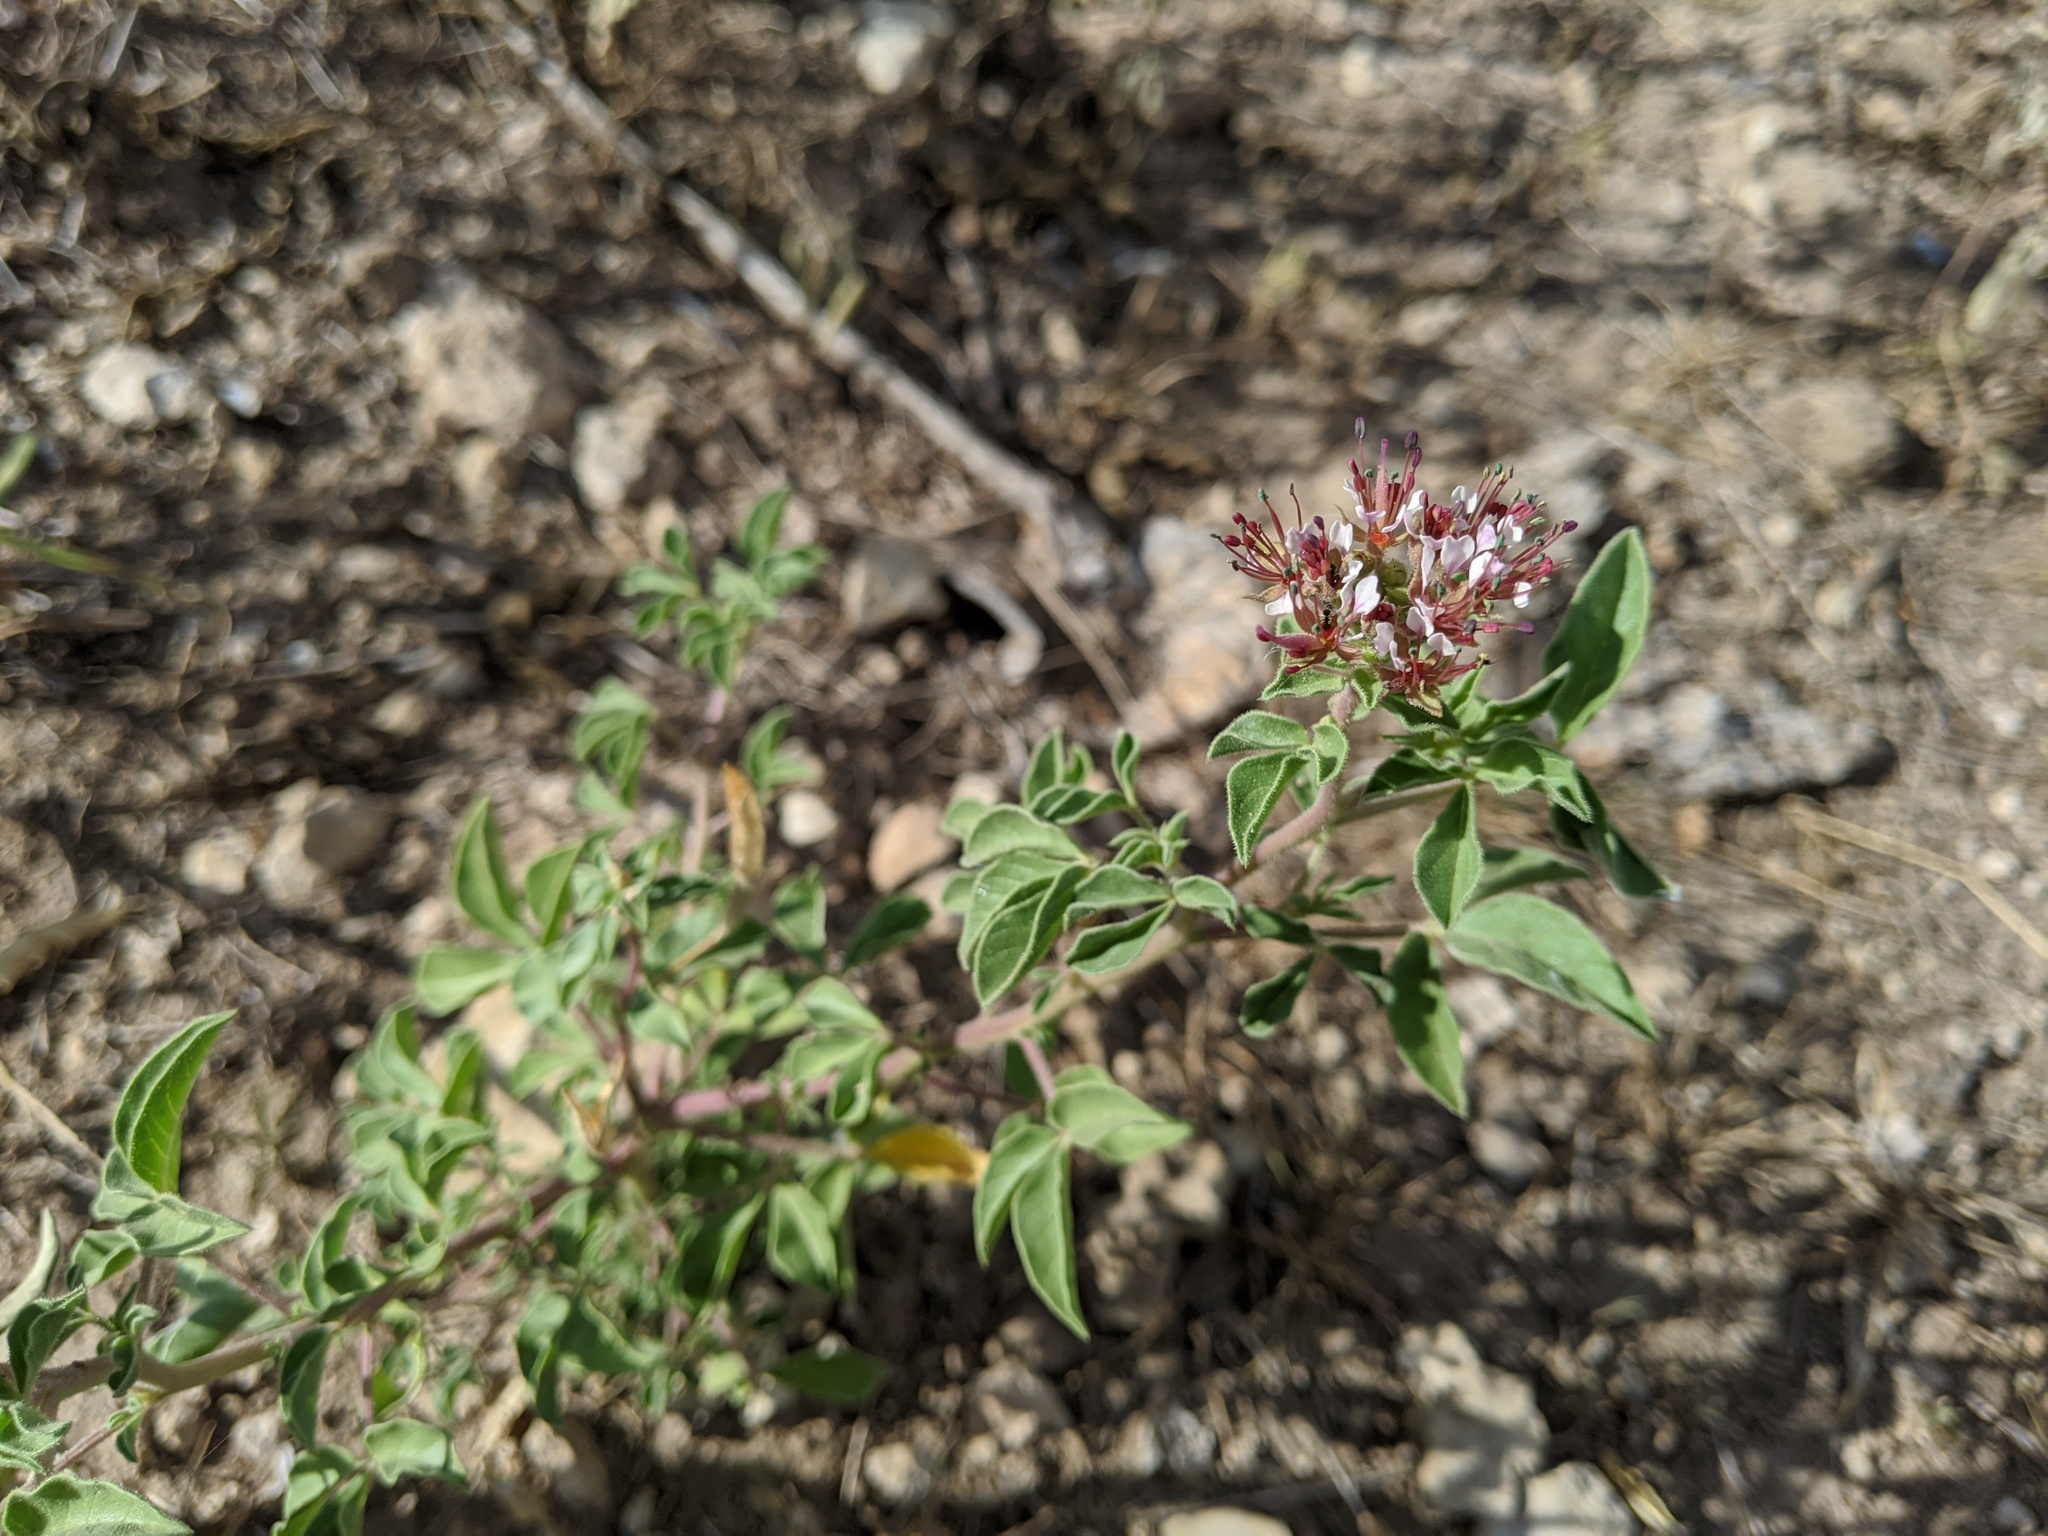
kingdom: Plantae
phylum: Tracheophyta
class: Magnoliopsida
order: Brassicales
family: Cleomaceae
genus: Polanisia
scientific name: Polanisia dodecandra
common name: Clammyweed
